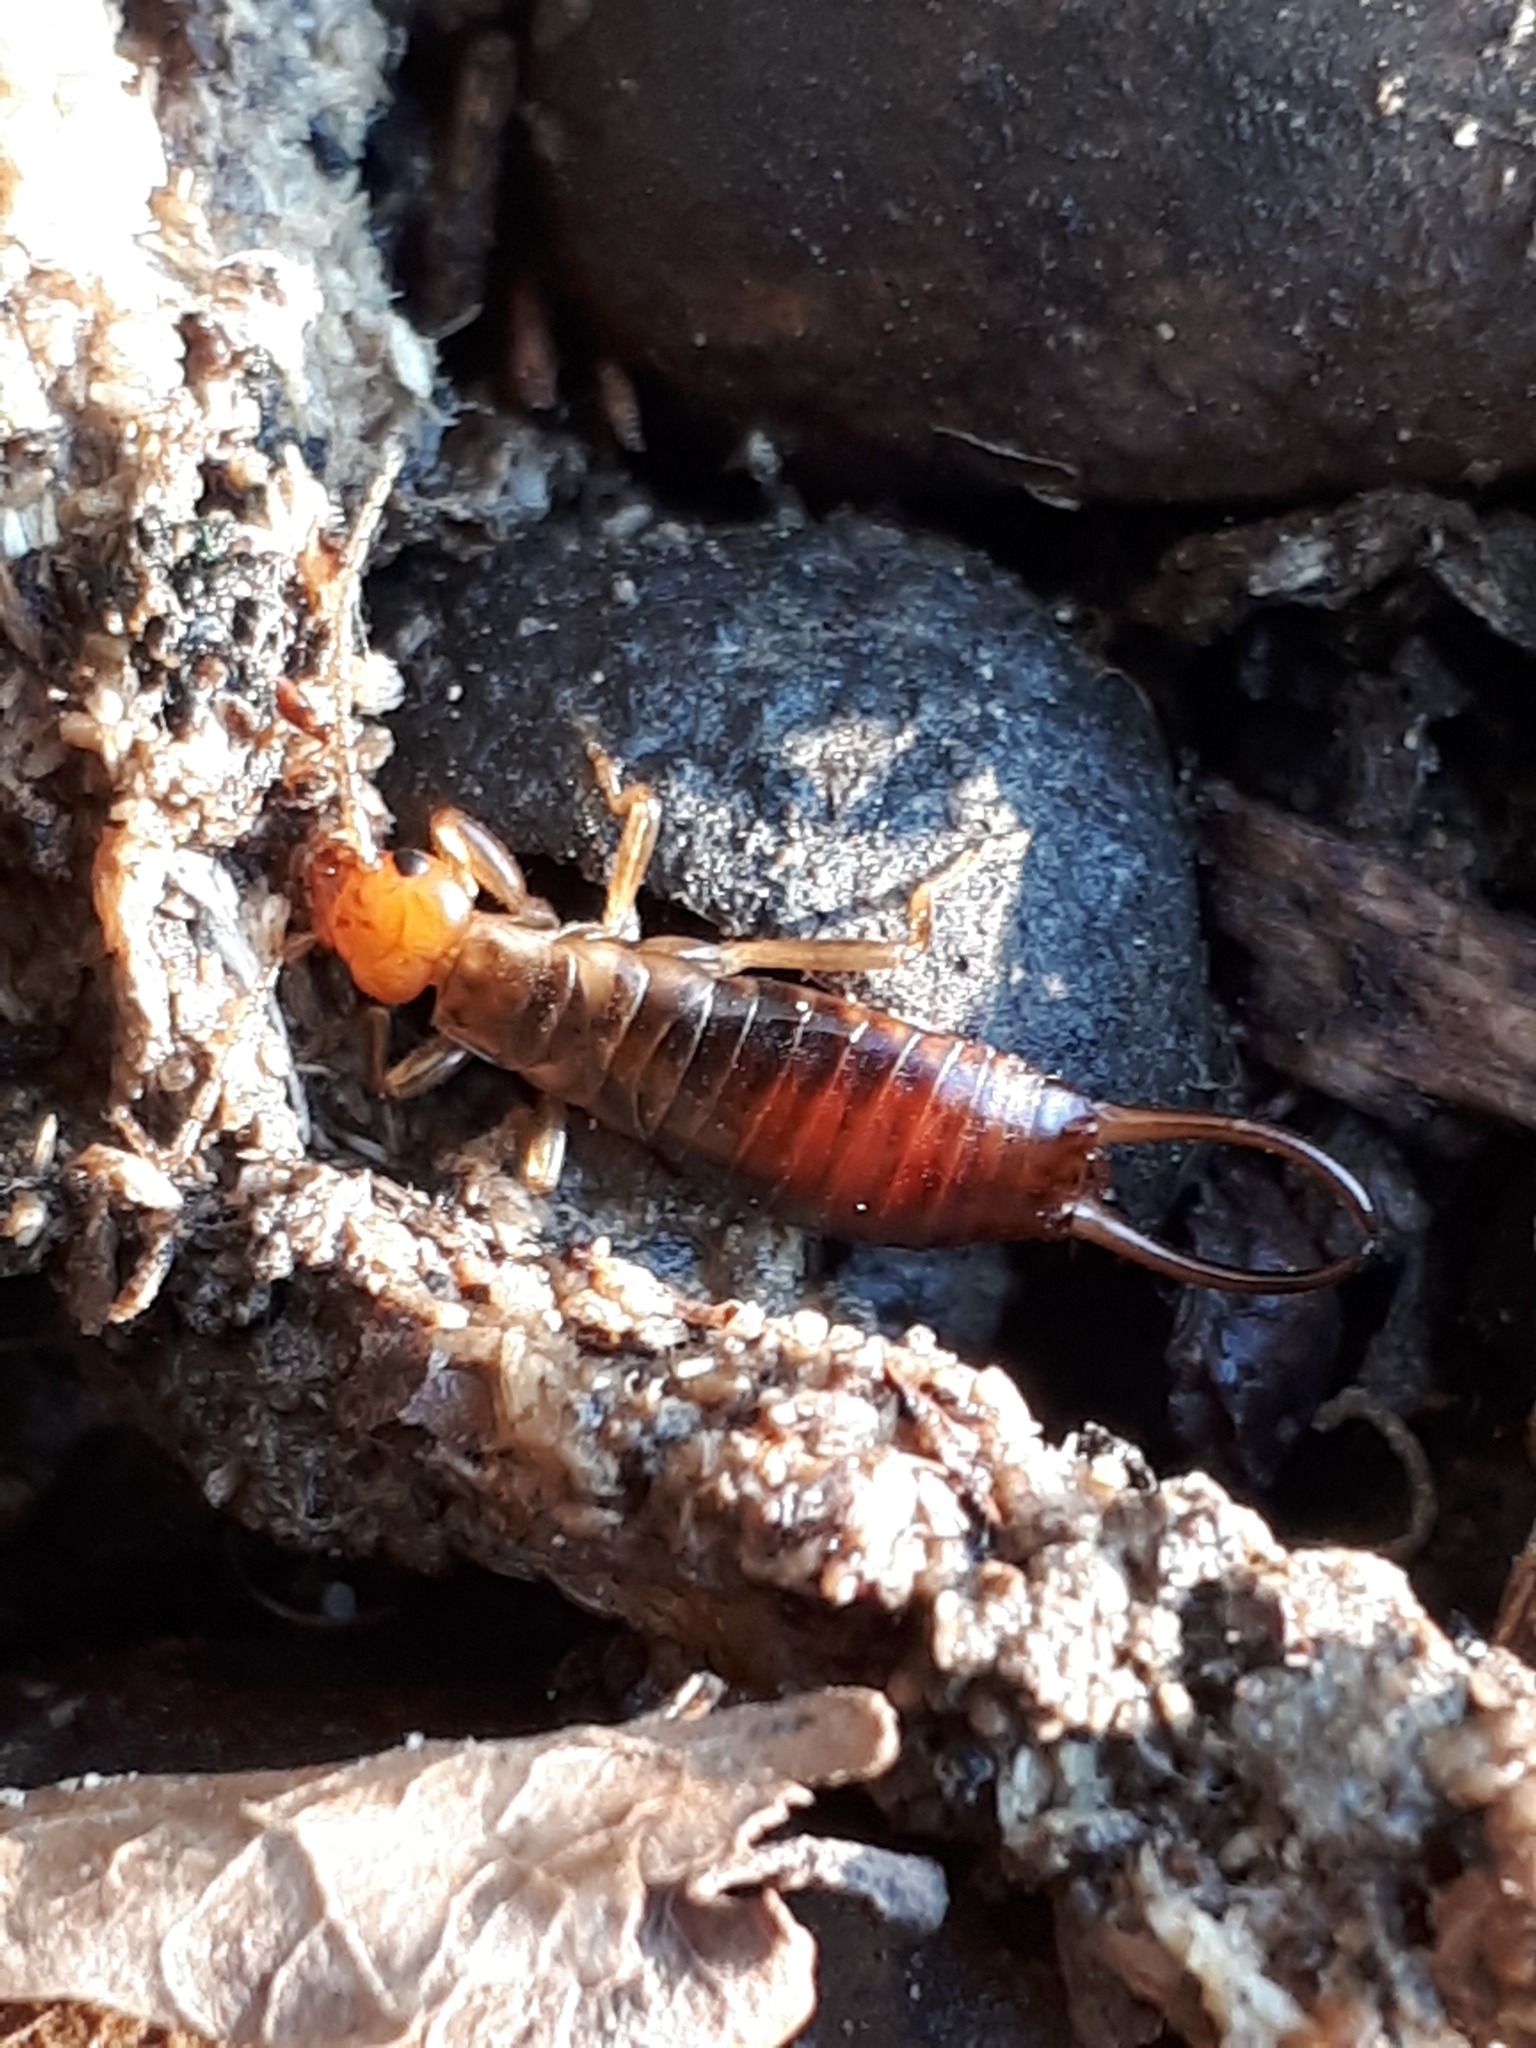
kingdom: Animalia
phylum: Arthropoda
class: Insecta
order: Dermaptera
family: Forficulidae
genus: Chelidurella
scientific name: Chelidurella acanthopygia
